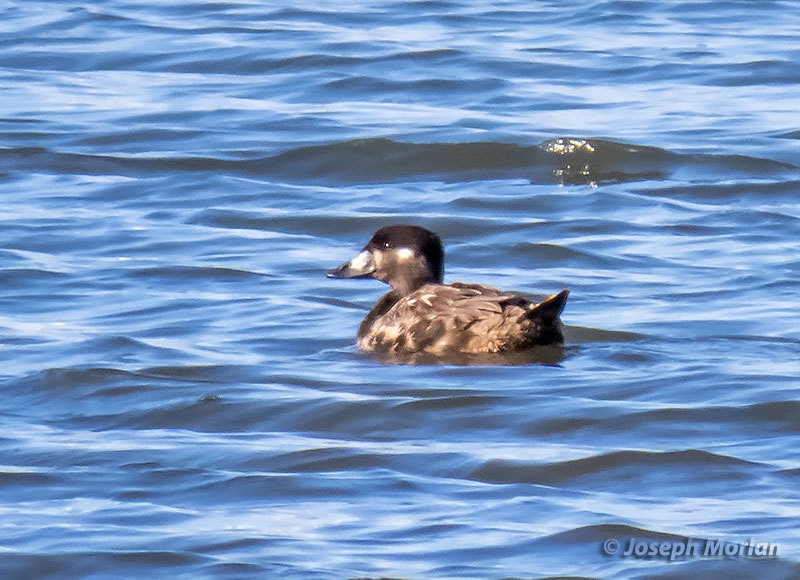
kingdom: Animalia
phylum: Chordata
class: Aves
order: Anseriformes
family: Anatidae
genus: Melanitta
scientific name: Melanitta perspicillata
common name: Surf scoter
